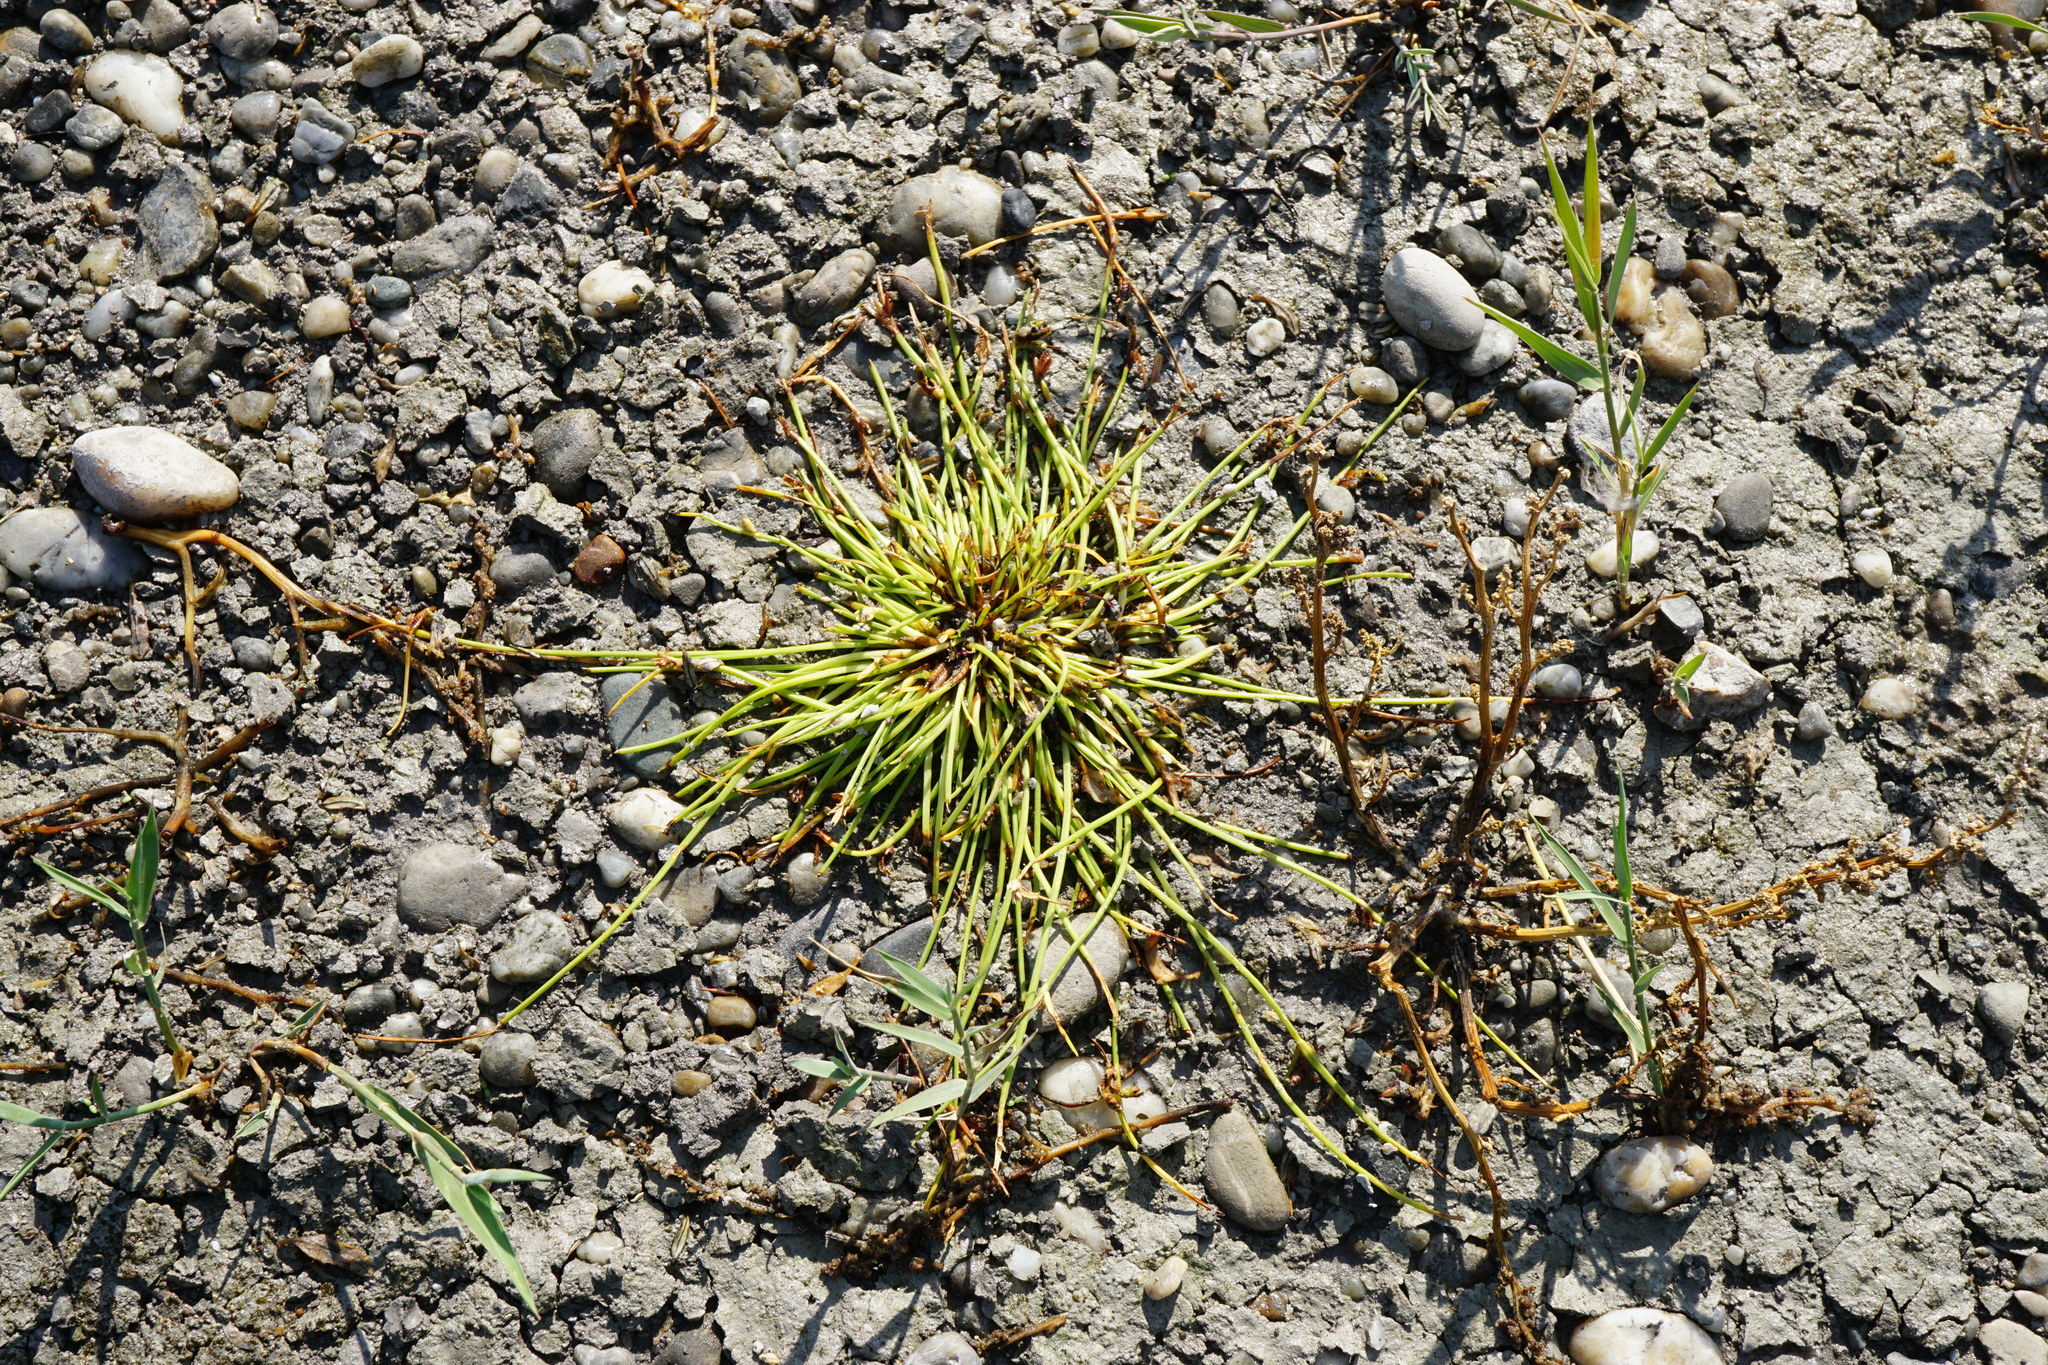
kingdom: Plantae
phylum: Tracheophyta
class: Liliopsida
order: Poales
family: Cyperaceae
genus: Cyperus
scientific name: Cyperus pannonicus
